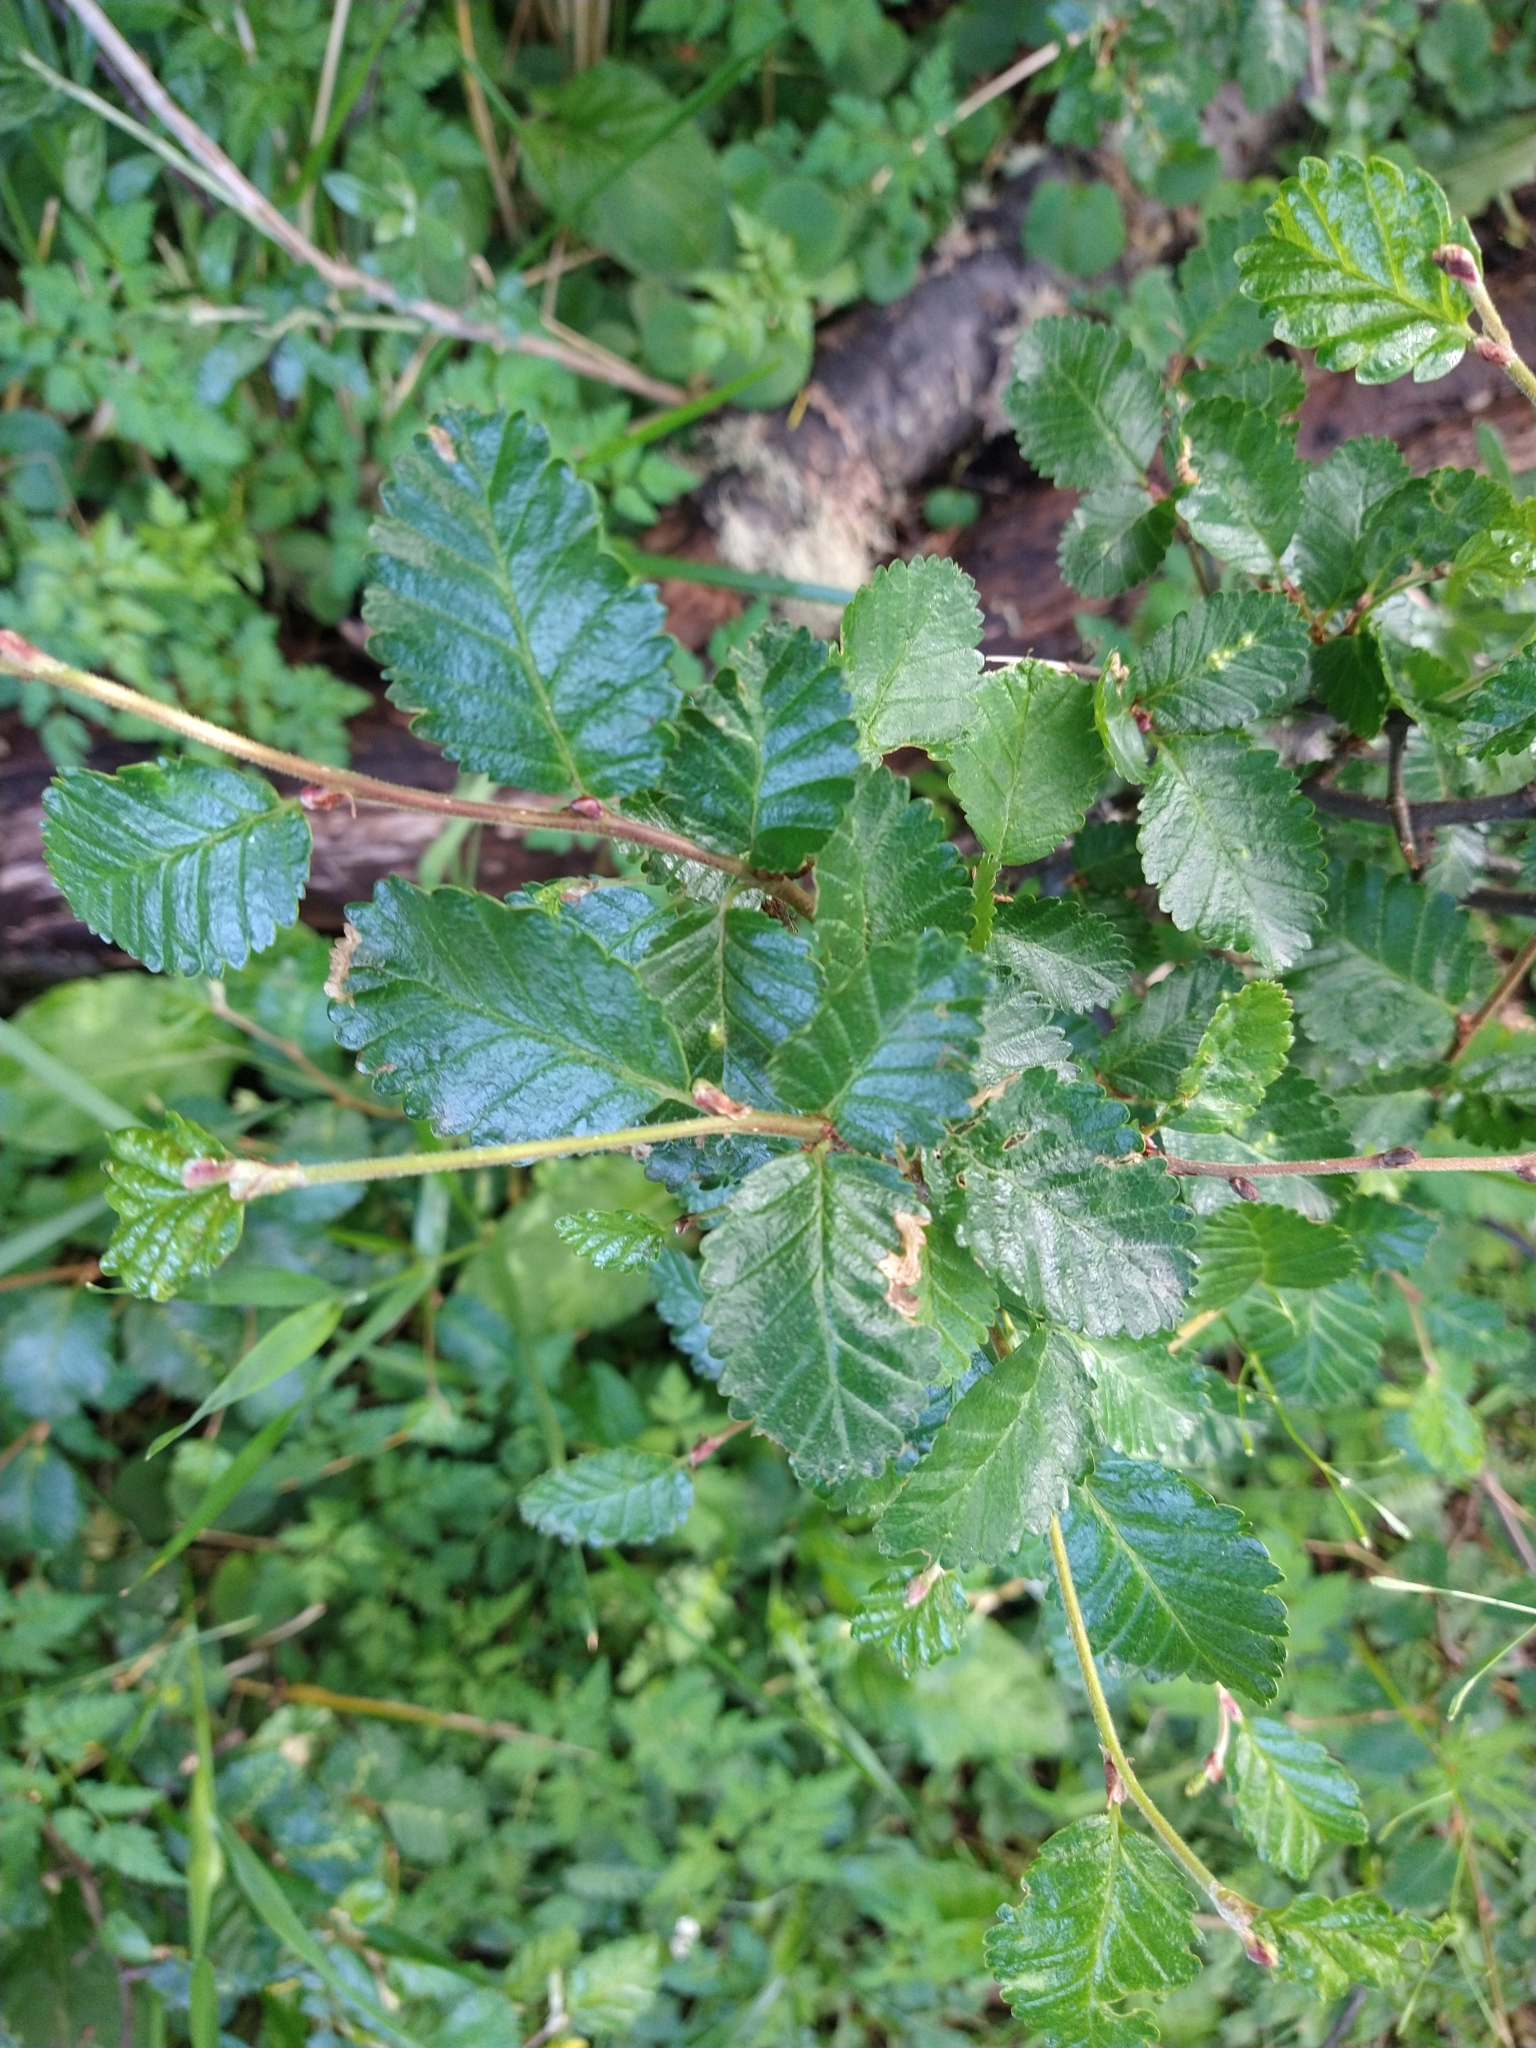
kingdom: Plantae
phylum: Tracheophyta
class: Magnoliopsida
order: Fagales
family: Nothofagaceae
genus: Nothofagus
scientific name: Nothofagus pumilio
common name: Lenga beech
